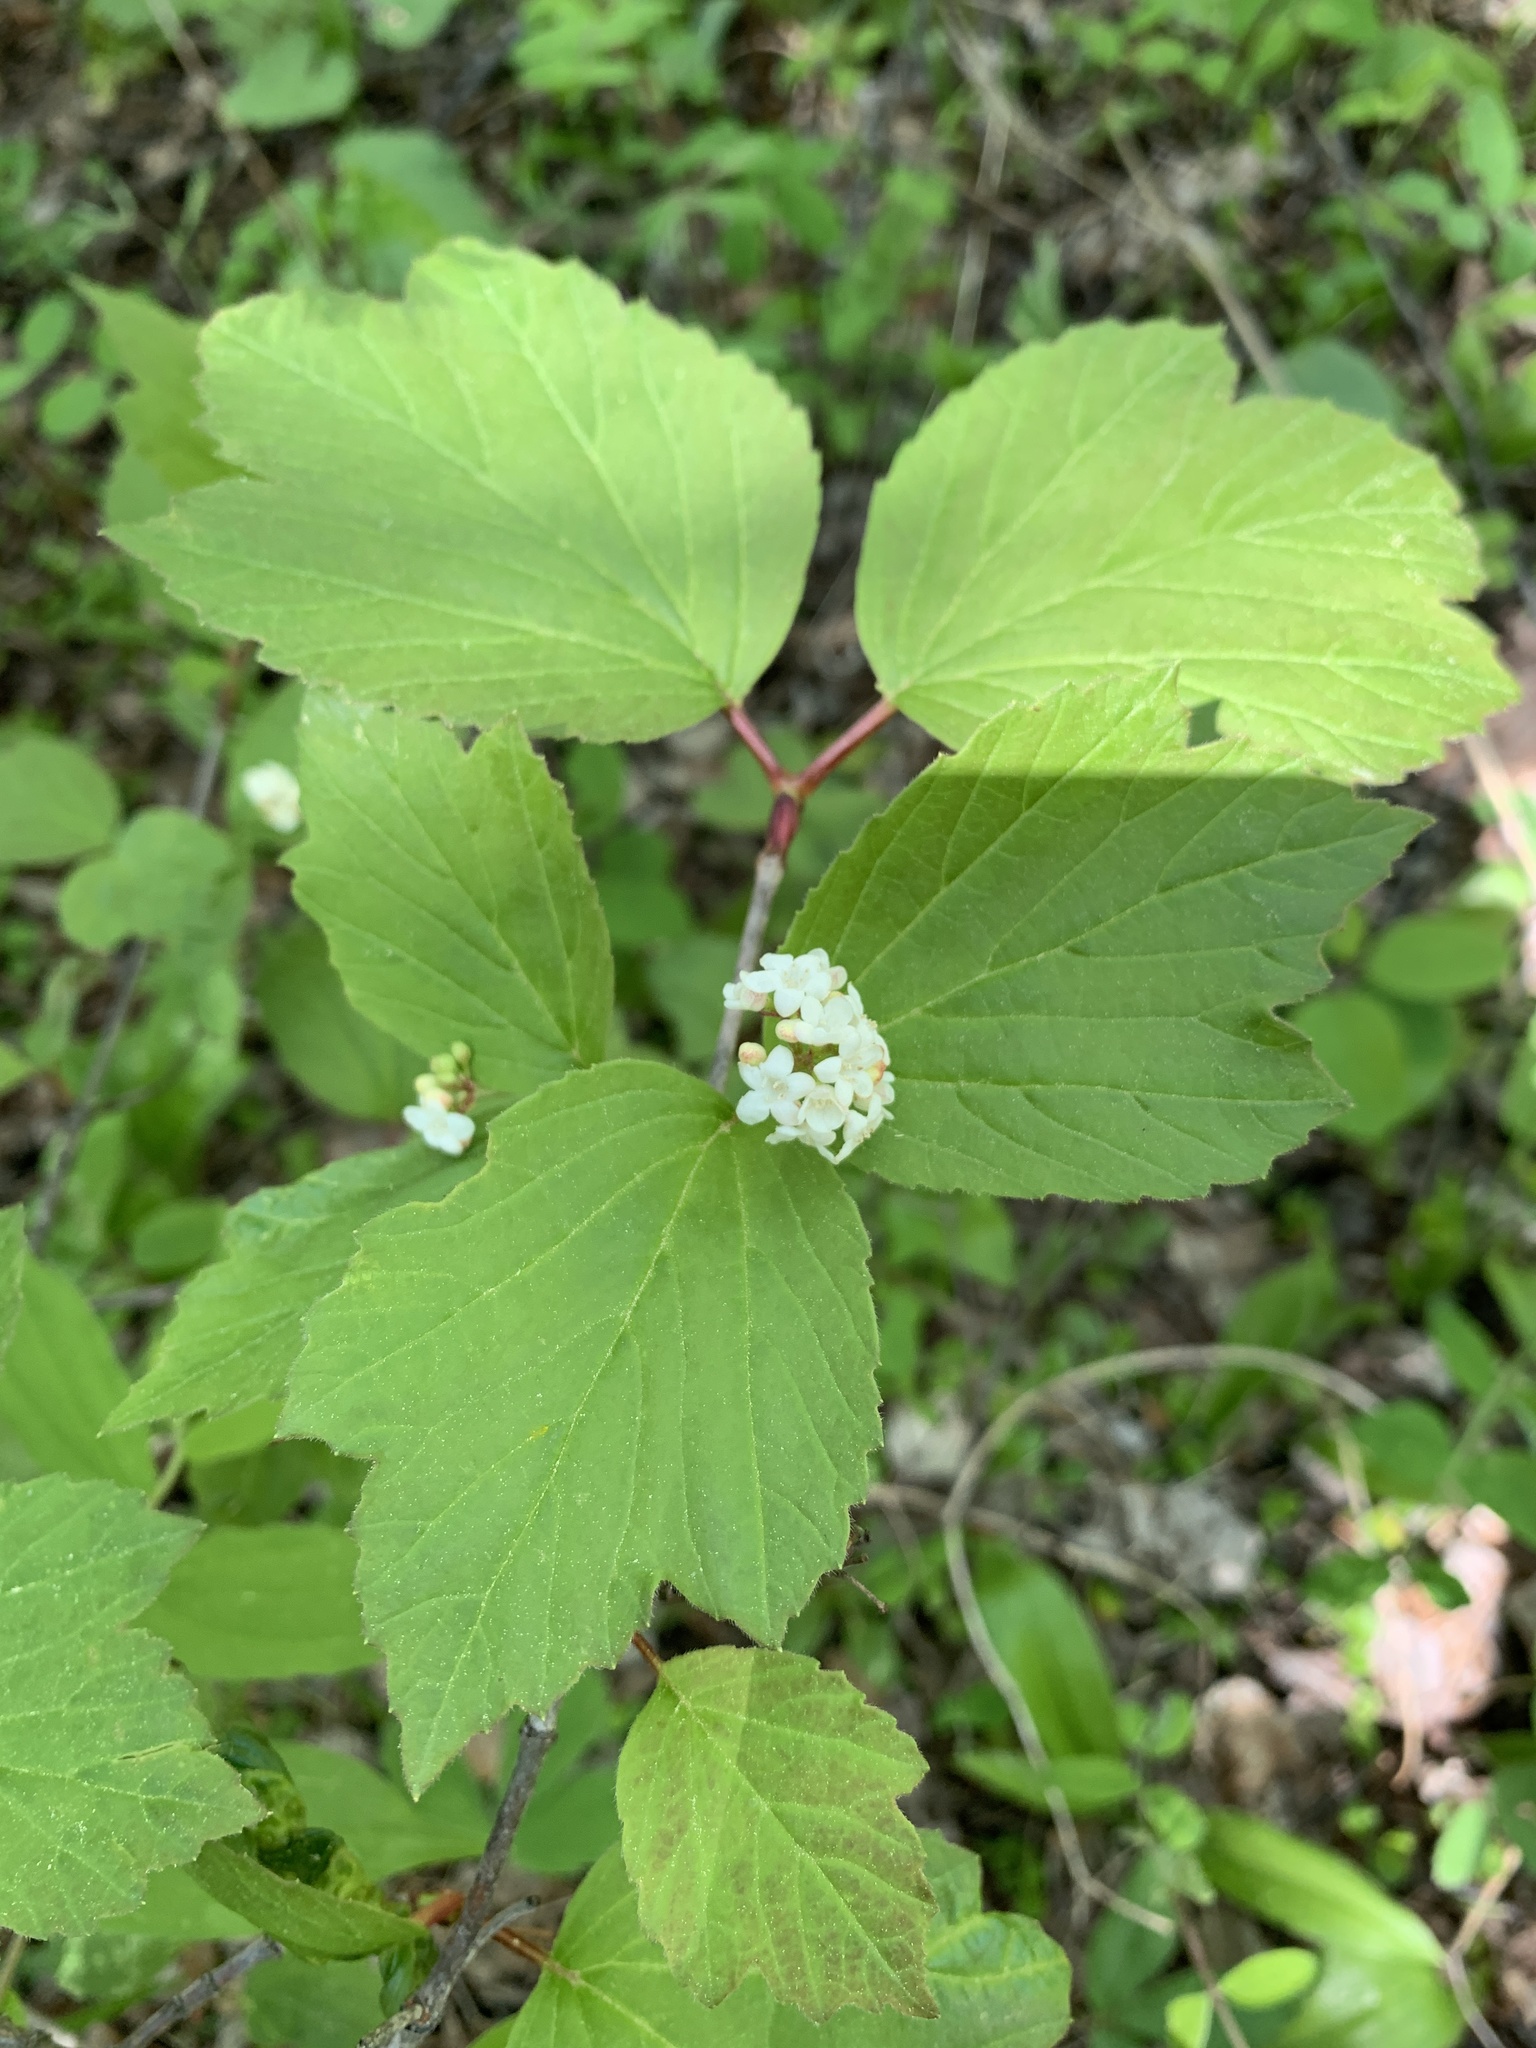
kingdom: Plantae
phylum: Tracheophyta
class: Magnoliopsida
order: Dipsacales
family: Viburnaceae
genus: Viburnum
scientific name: Viburnum edule
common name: Mooseberry
